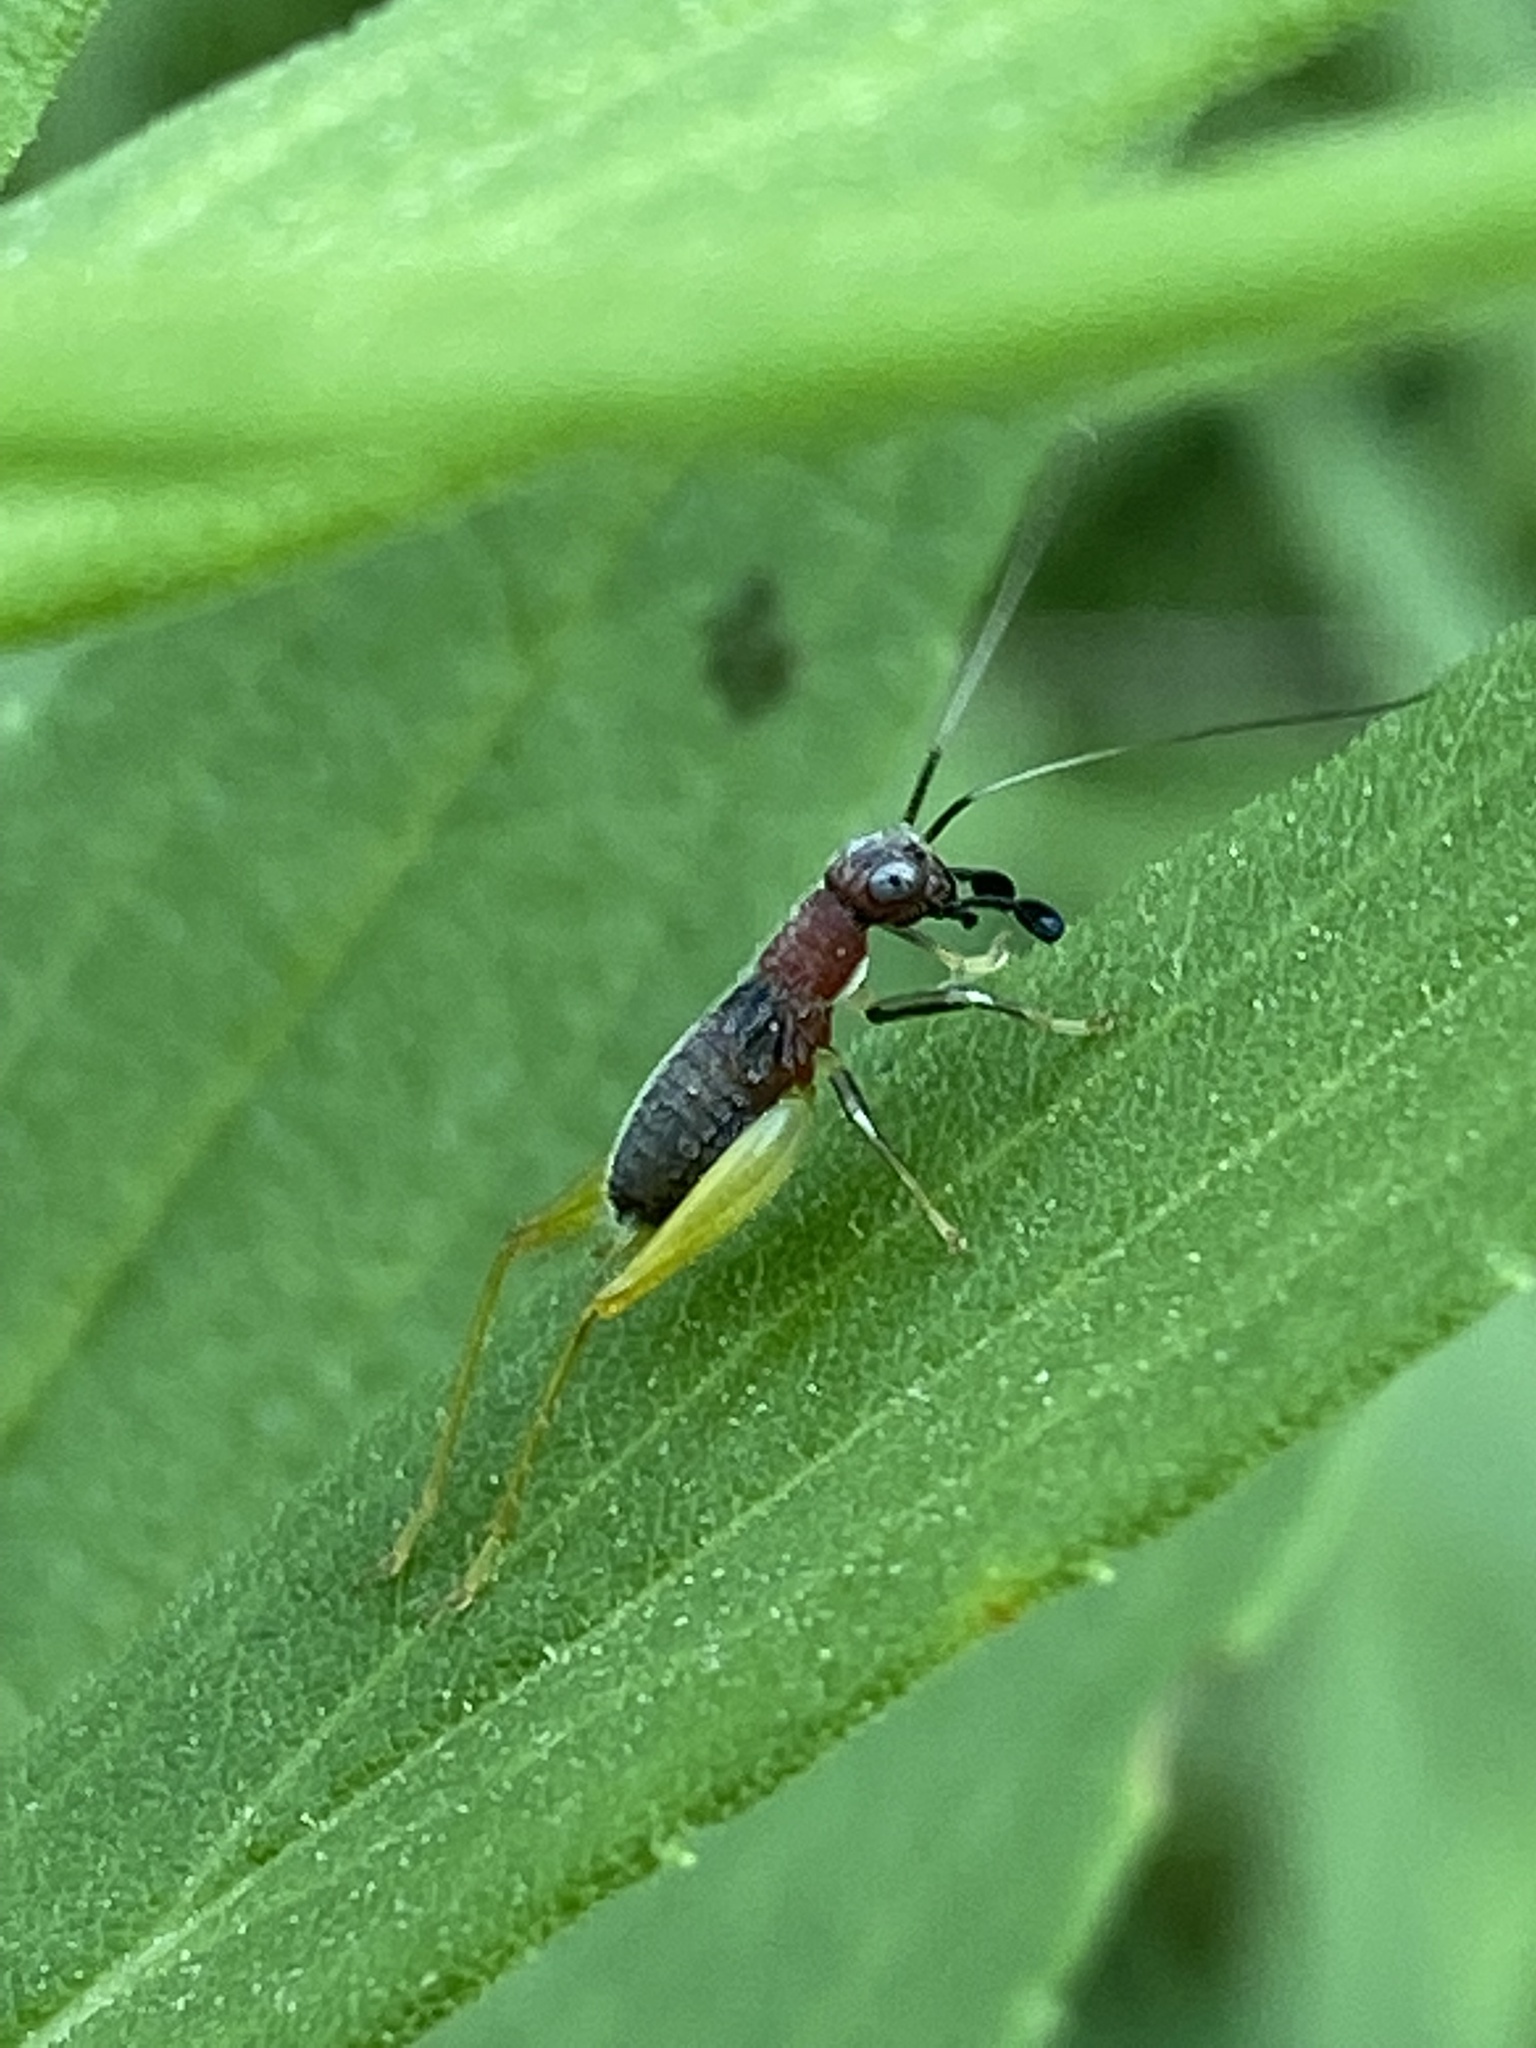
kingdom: Animalia
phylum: Arthropoda
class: Insecta
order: Orthoptera
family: Trigonidiidae
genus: Phyllopalpus
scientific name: Phyllopalpus pulchellus
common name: Handsome trig
